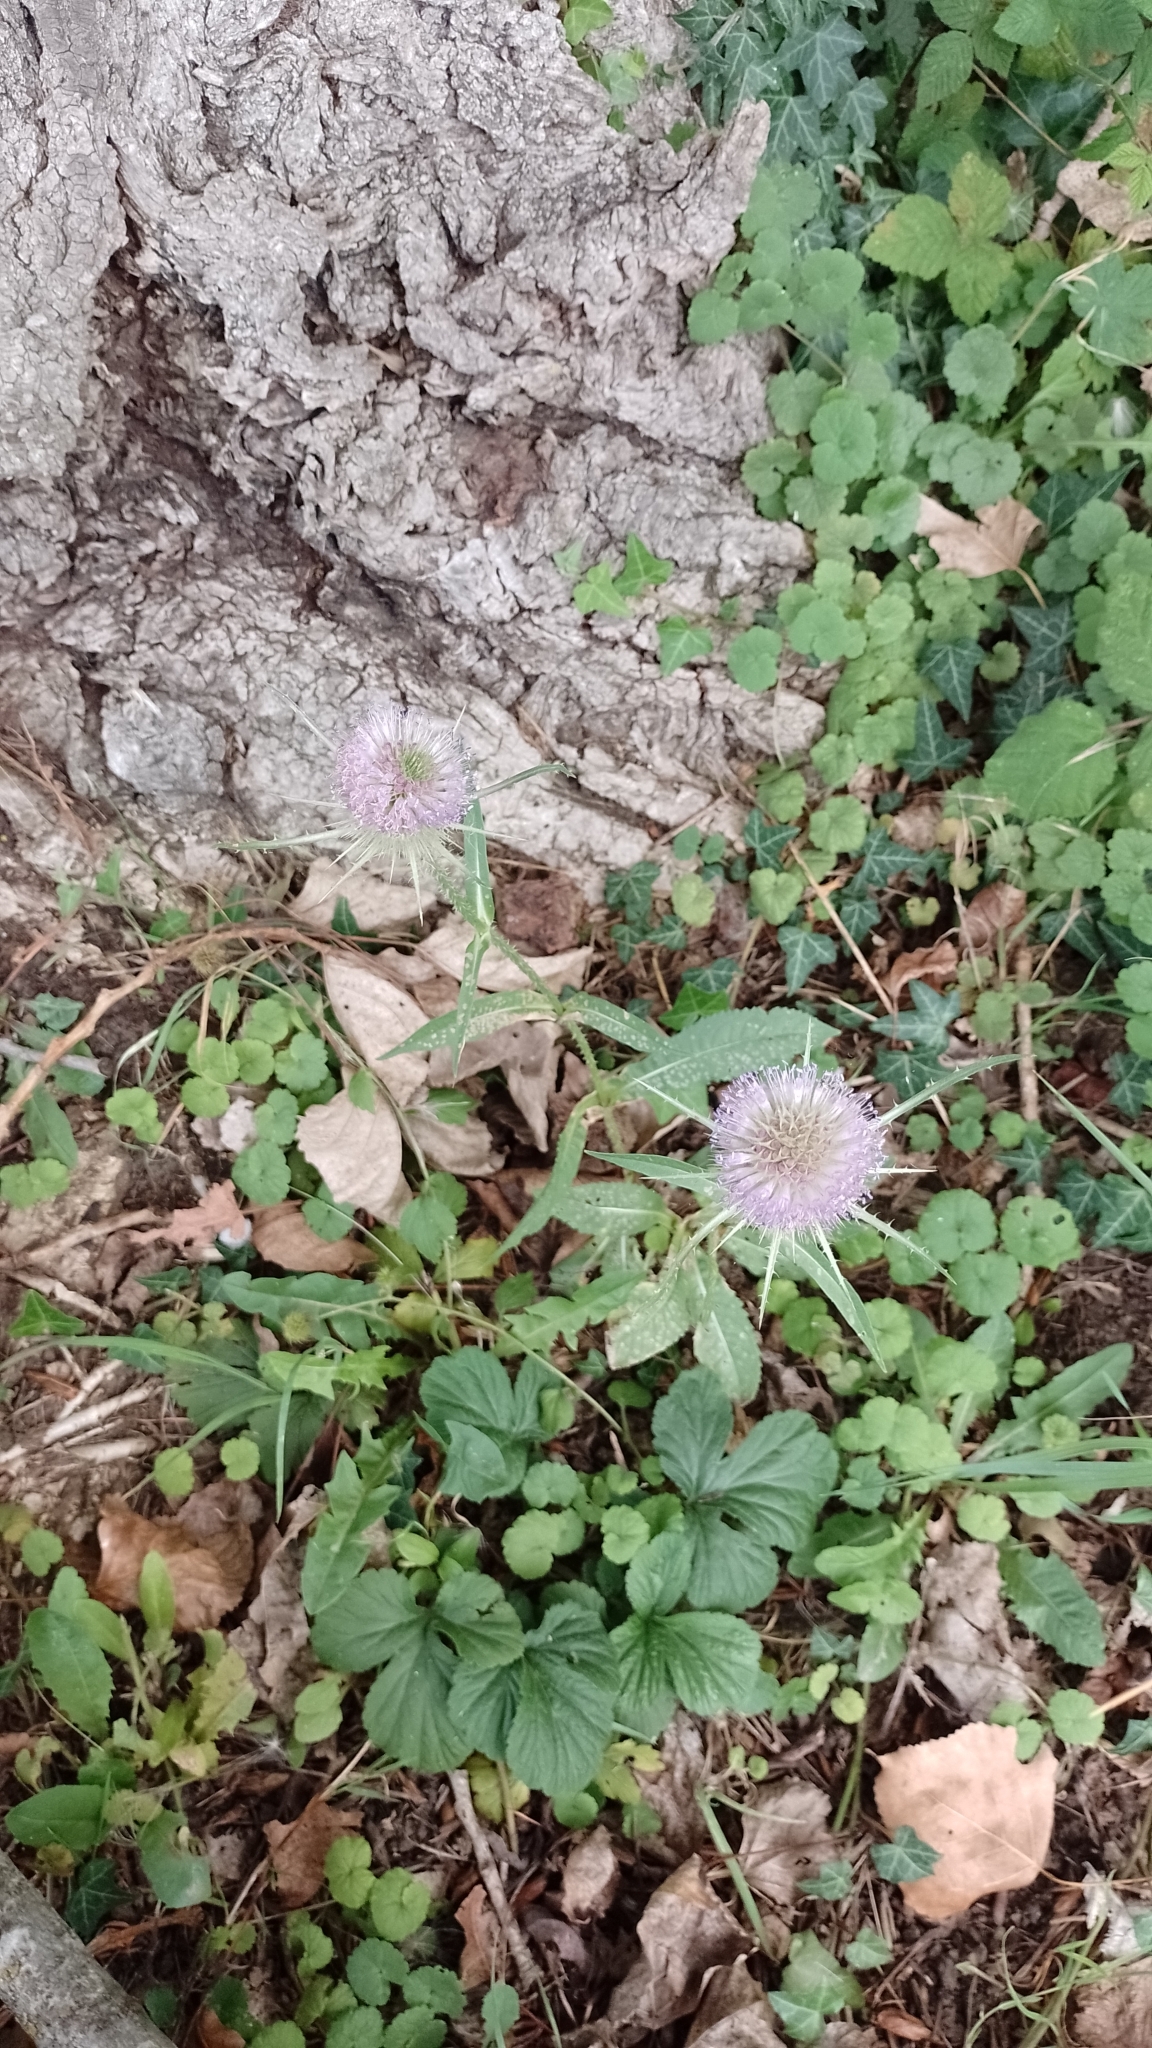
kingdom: Plantae
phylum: Tracheophyta
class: Magnoliopsida
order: Dipsacales
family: Caprifoliaceae
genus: Dipsacus
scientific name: Dipsacus fullonum
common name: Teasel
